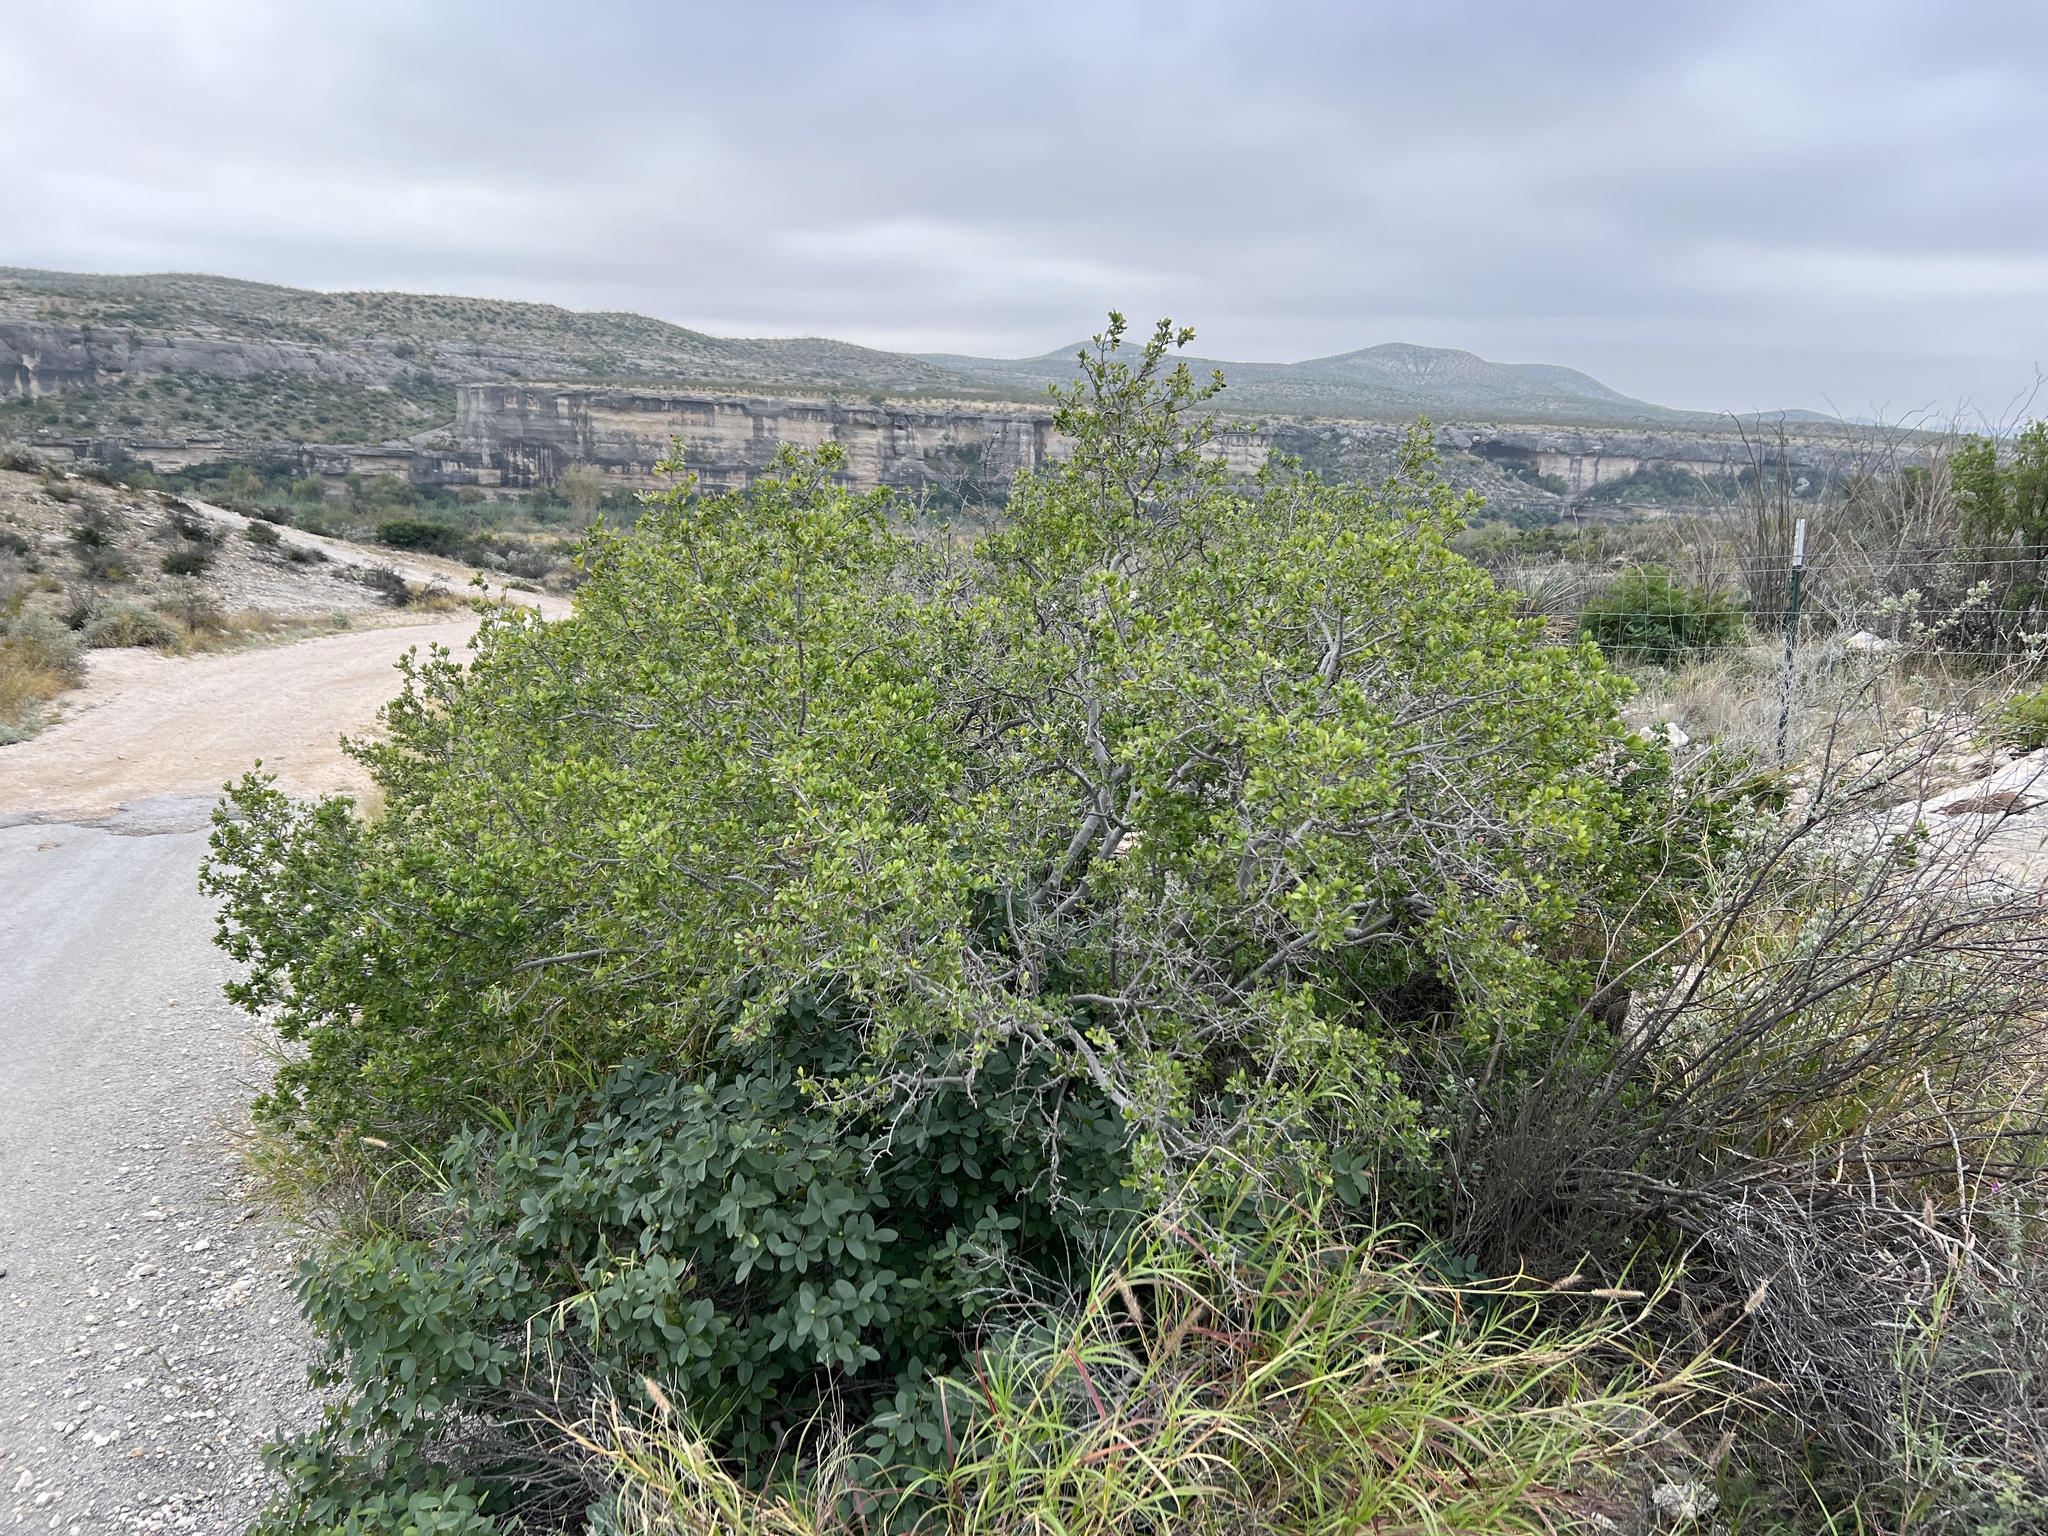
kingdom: Plantae
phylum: Tracheophyta
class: Magnoliopsida
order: Ericales
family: Ebenaceae
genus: Diospyros
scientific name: Diospyros texana
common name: Texas persimmon
